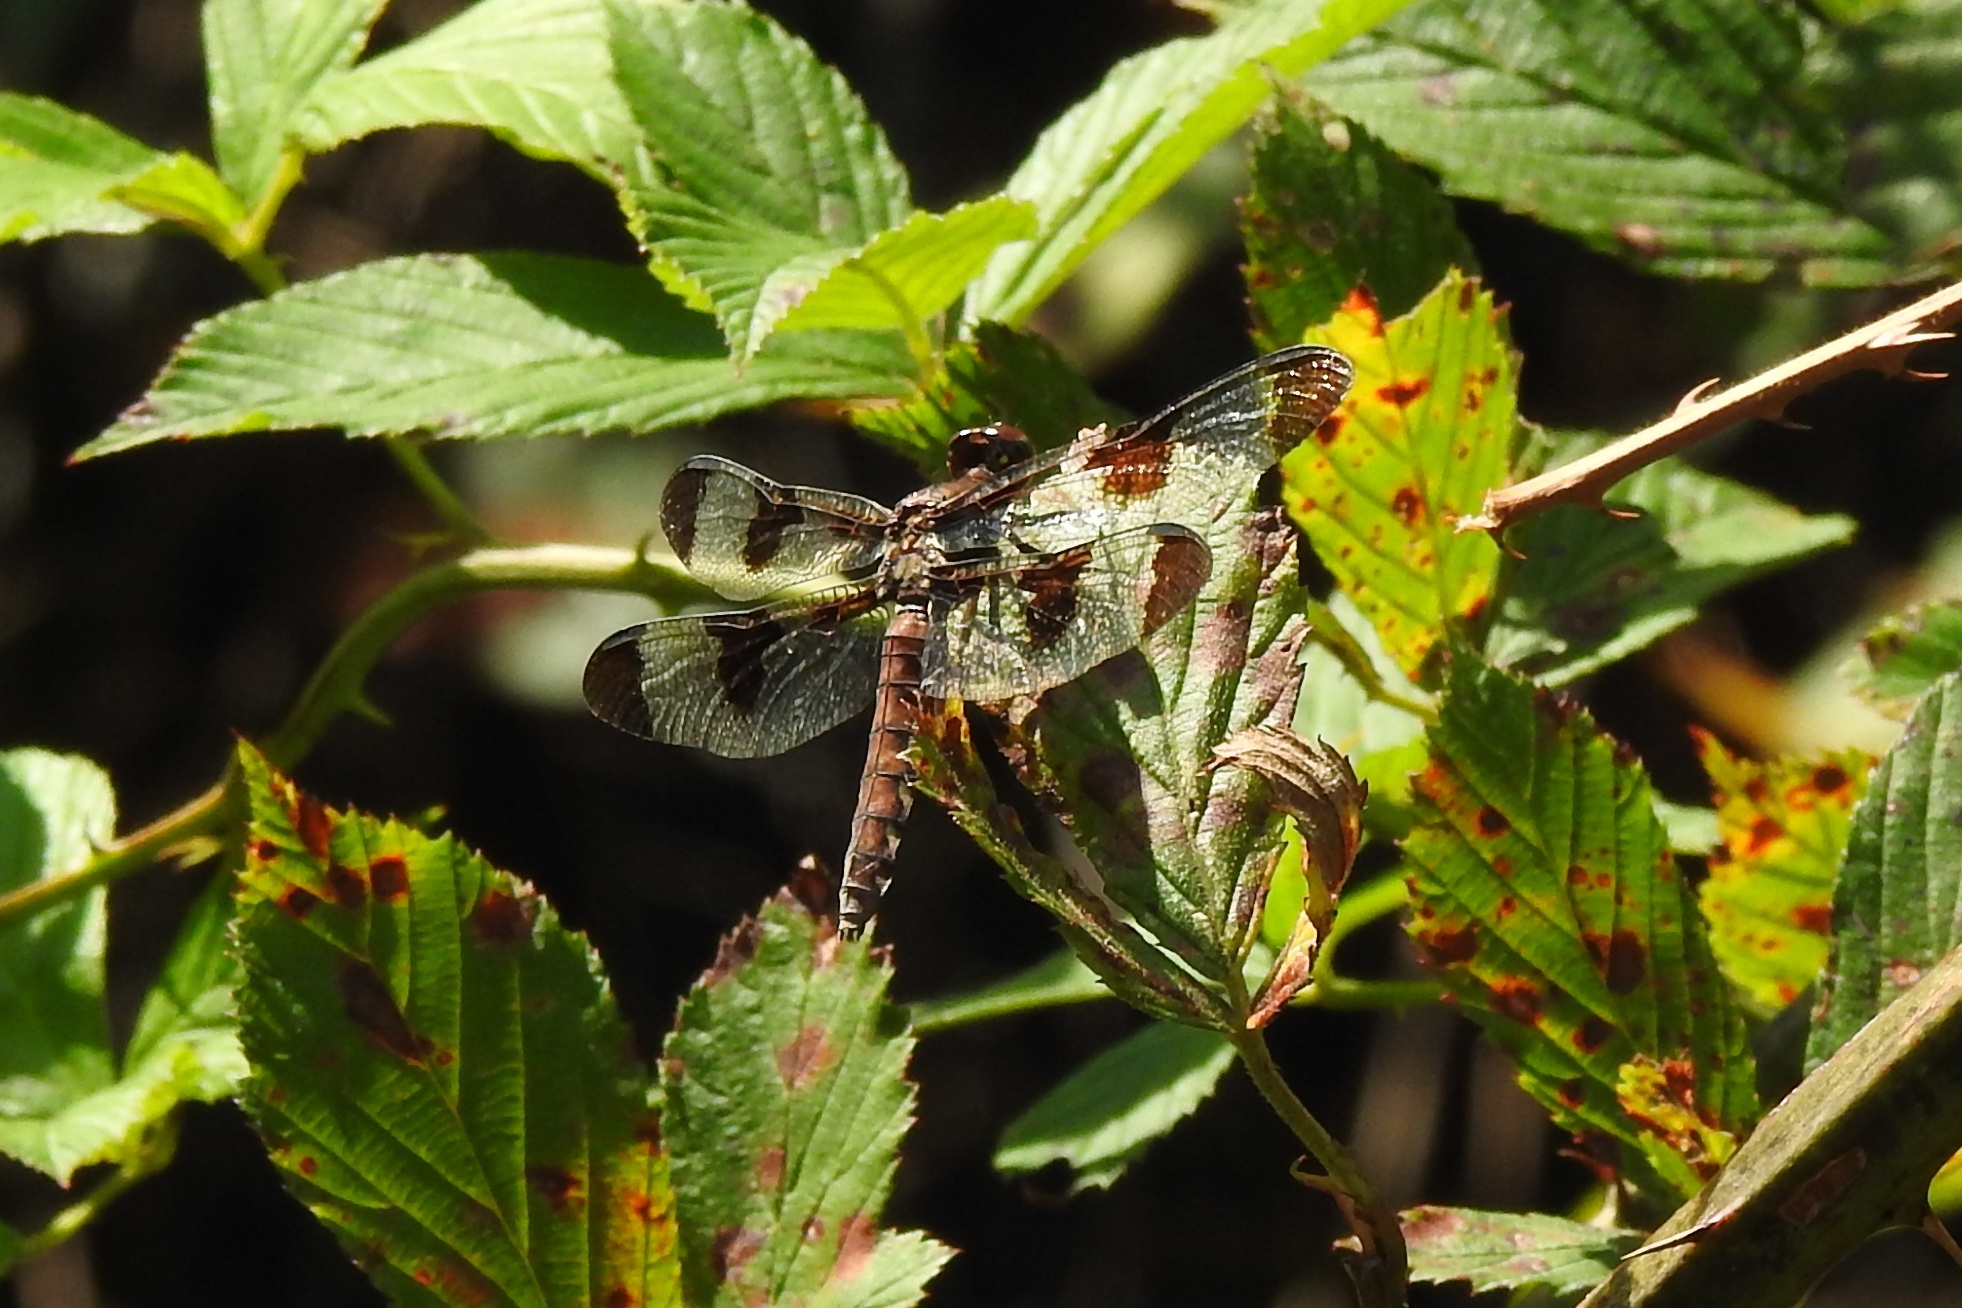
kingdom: Animalia
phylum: Arthropoda
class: Insecta
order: Odonata
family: Libellulidae
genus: Plathemis
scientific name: Plathemis lydia
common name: Common whitetail
